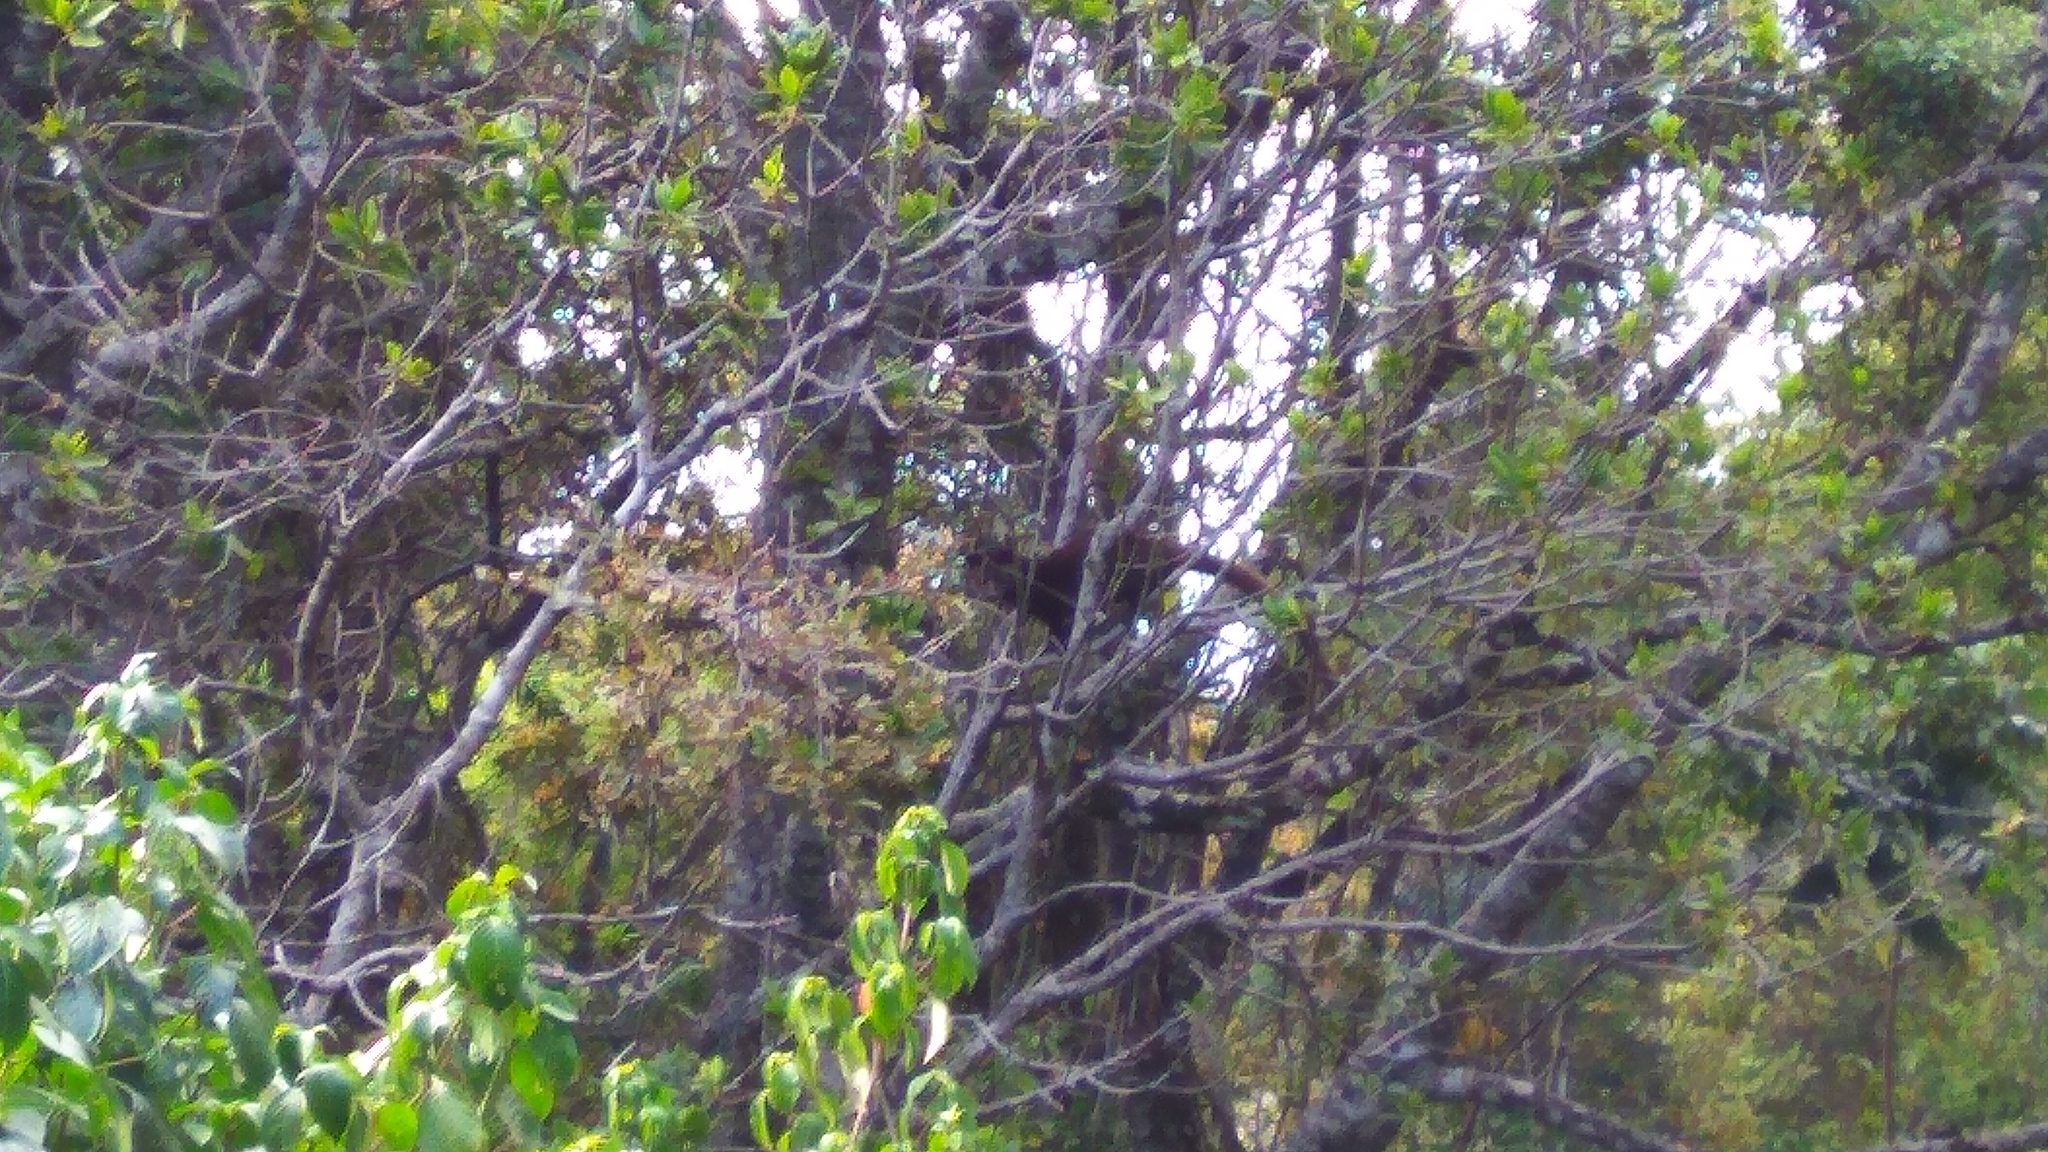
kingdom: Animalia
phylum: Chordata
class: Mammalia
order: Carnivora
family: Viverridae
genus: Paradoxurus
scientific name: Paradoxurus jerdoni
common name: Jerdon's palm civet
